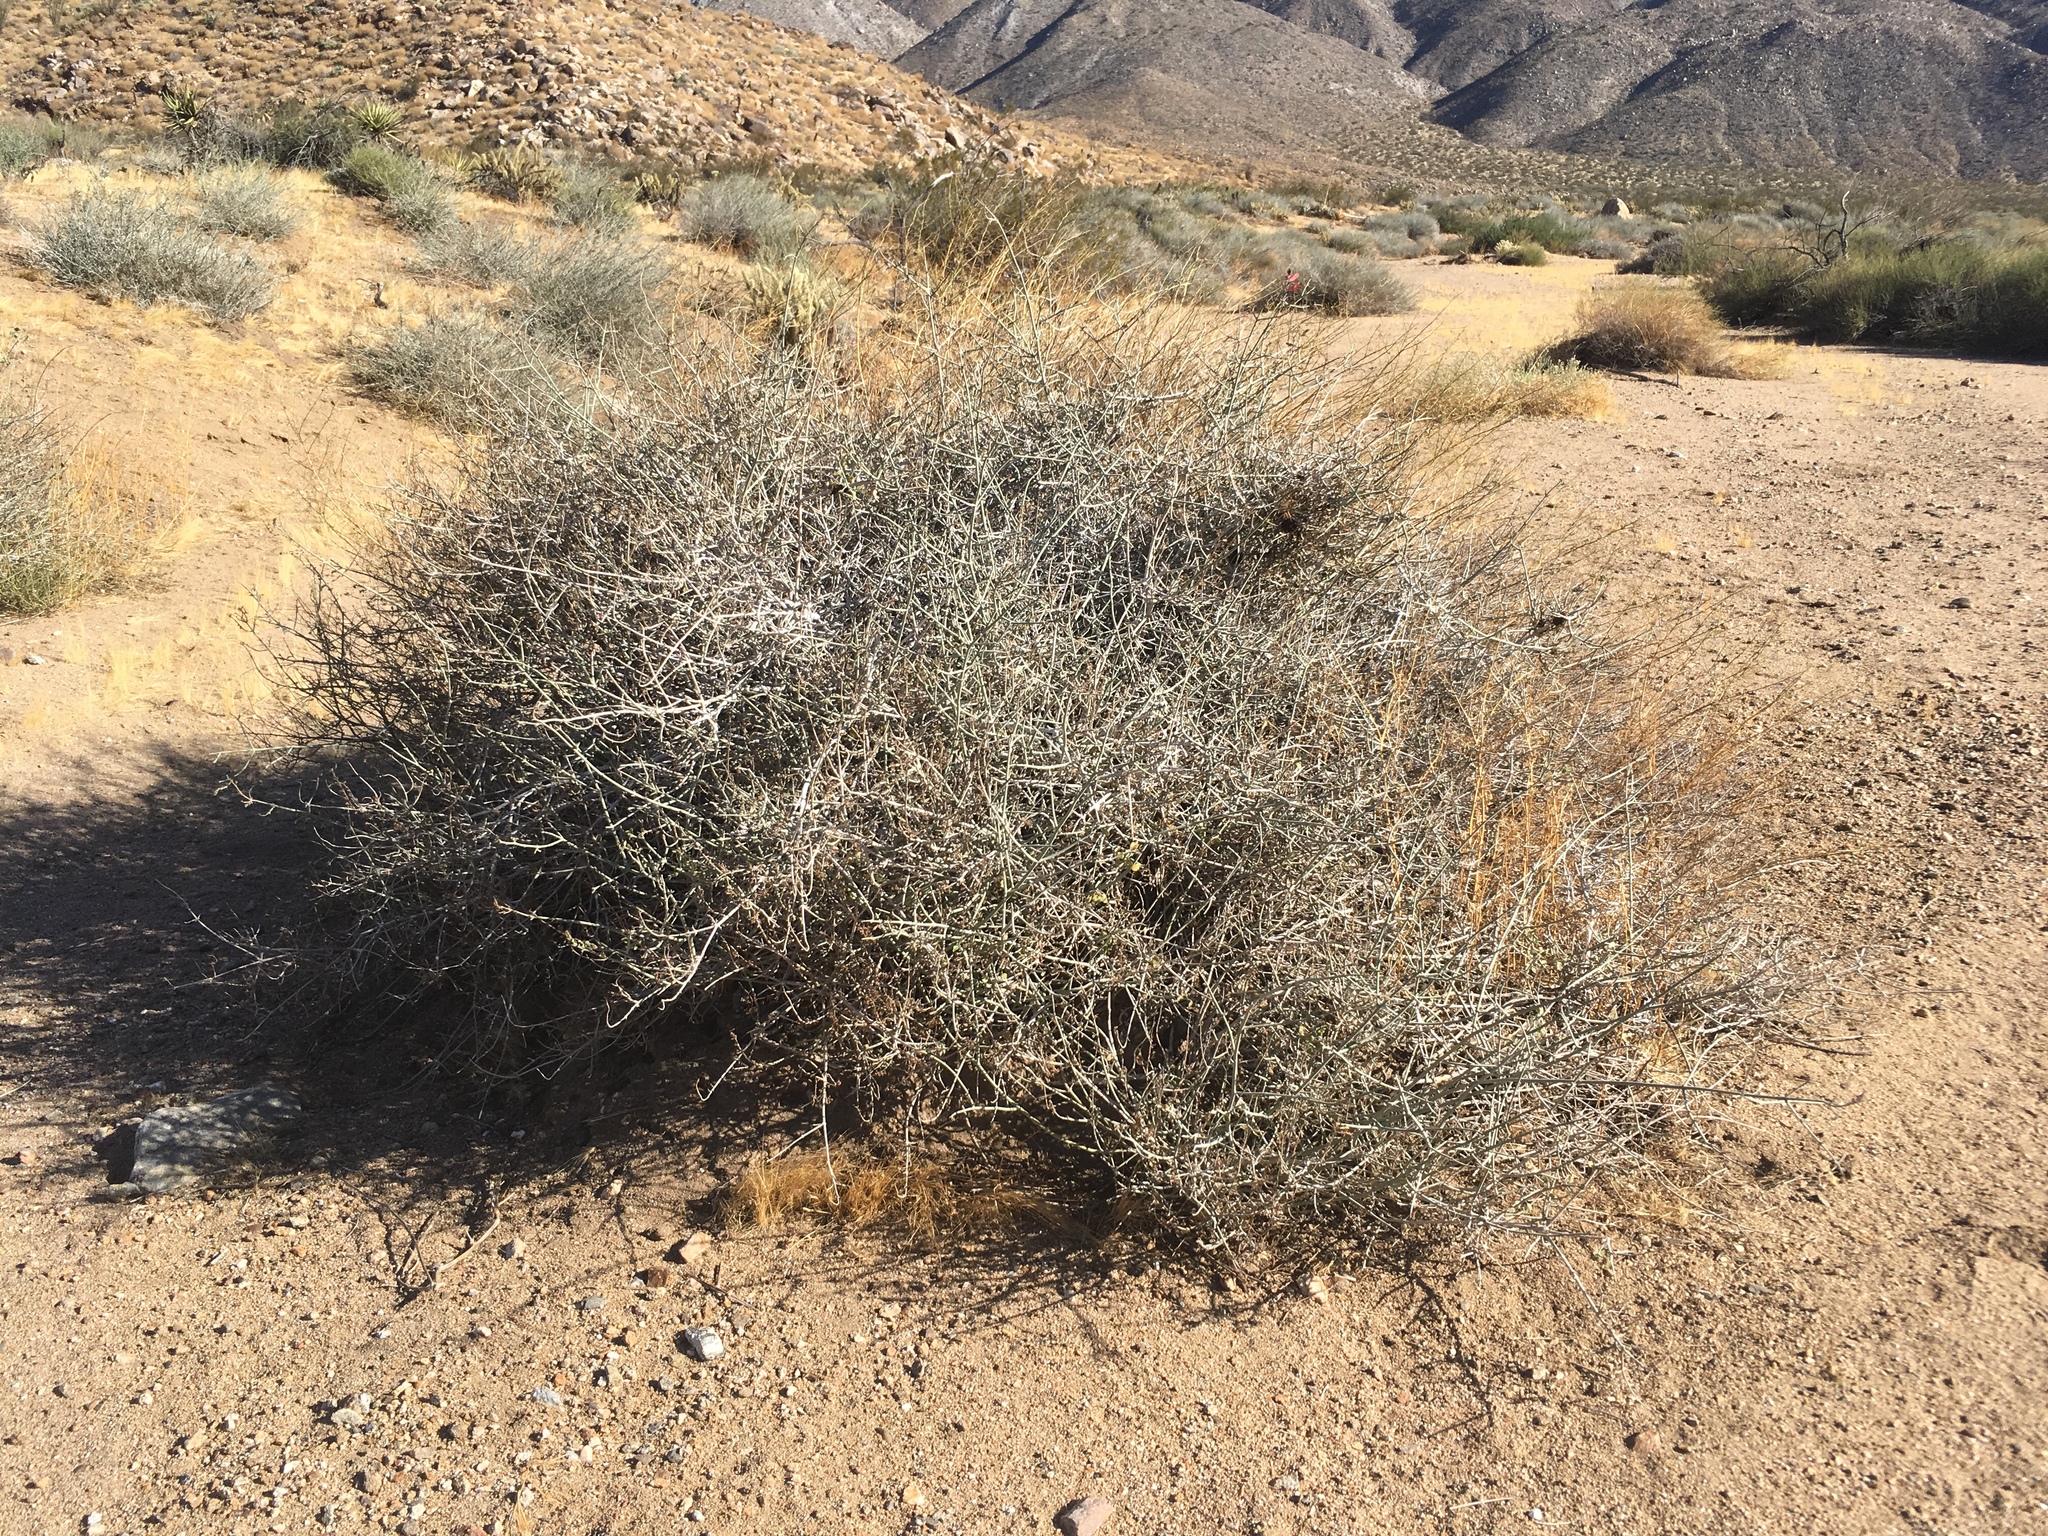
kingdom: Plantae
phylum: Tracheophyta
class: Magnoliopsida
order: Lamiales
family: Acanthaceae
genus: Justicia
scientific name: Justicia californica
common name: Chuparosa-honeysuckle
